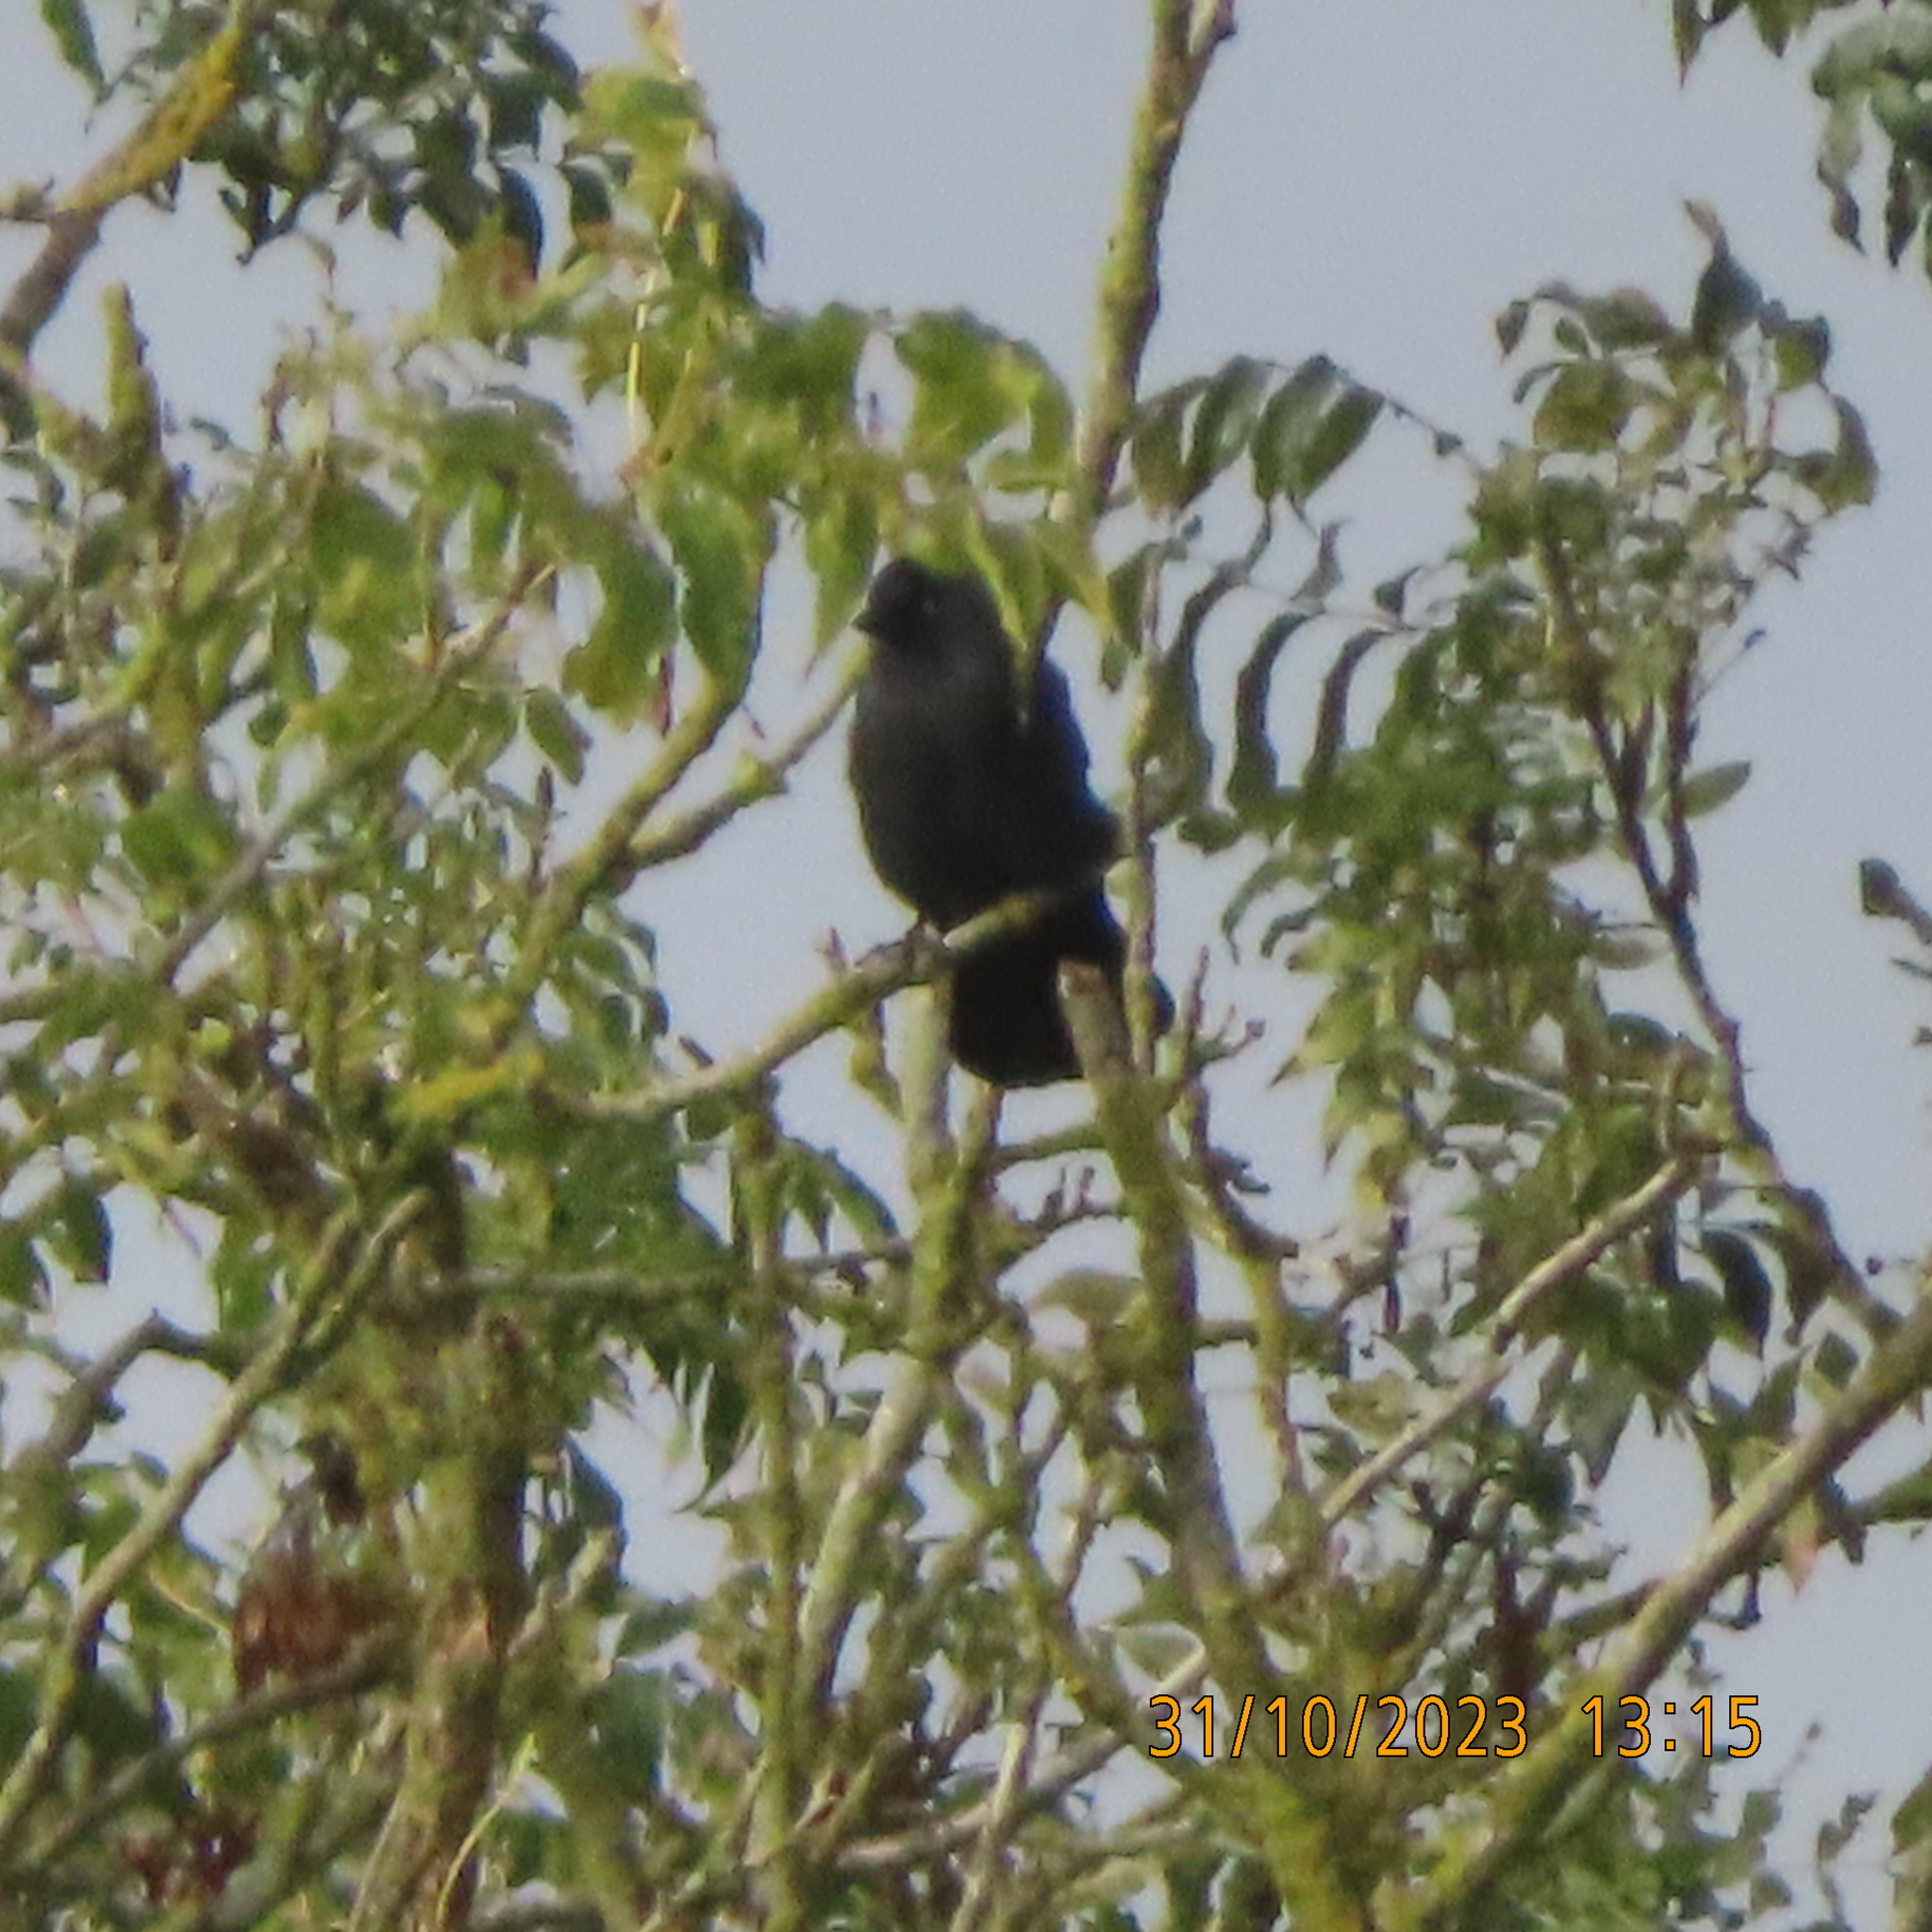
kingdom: Animalia
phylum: Chordata
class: Aves
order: Passeriformes
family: Corvidae
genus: Coloeus
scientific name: Coloeus monedula
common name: Western jackdaw
